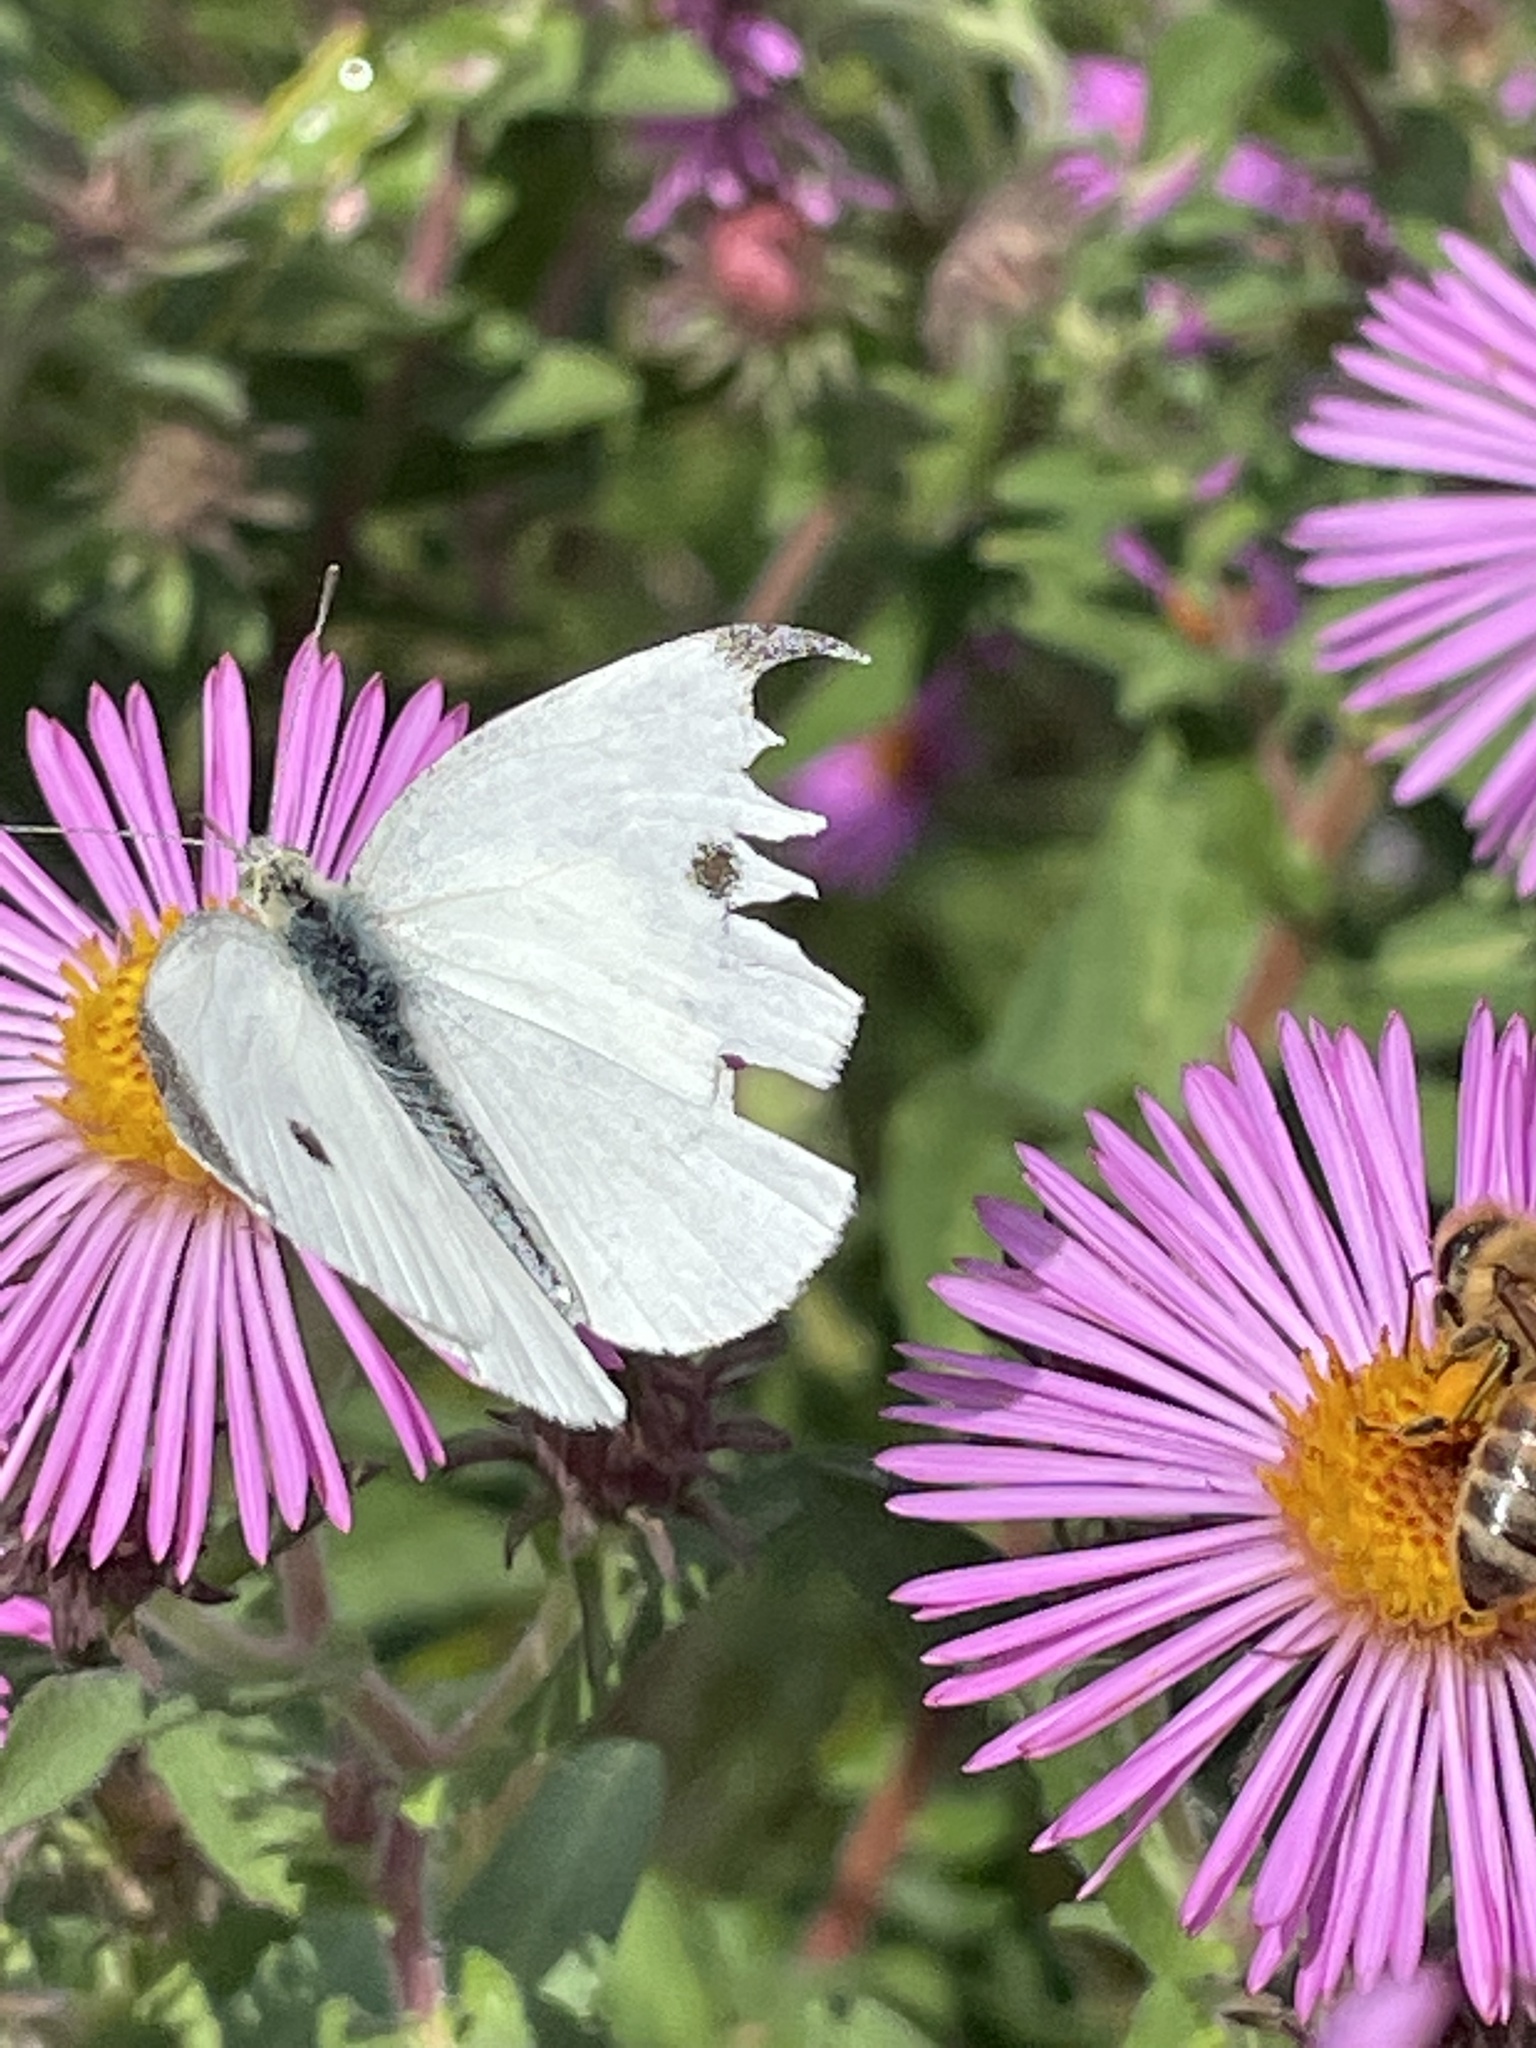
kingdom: Animalia
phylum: Arthropoda
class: Insecta
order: Lepidoptera
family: Pieridae
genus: Pieris
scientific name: Pieris rapae
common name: Small white
